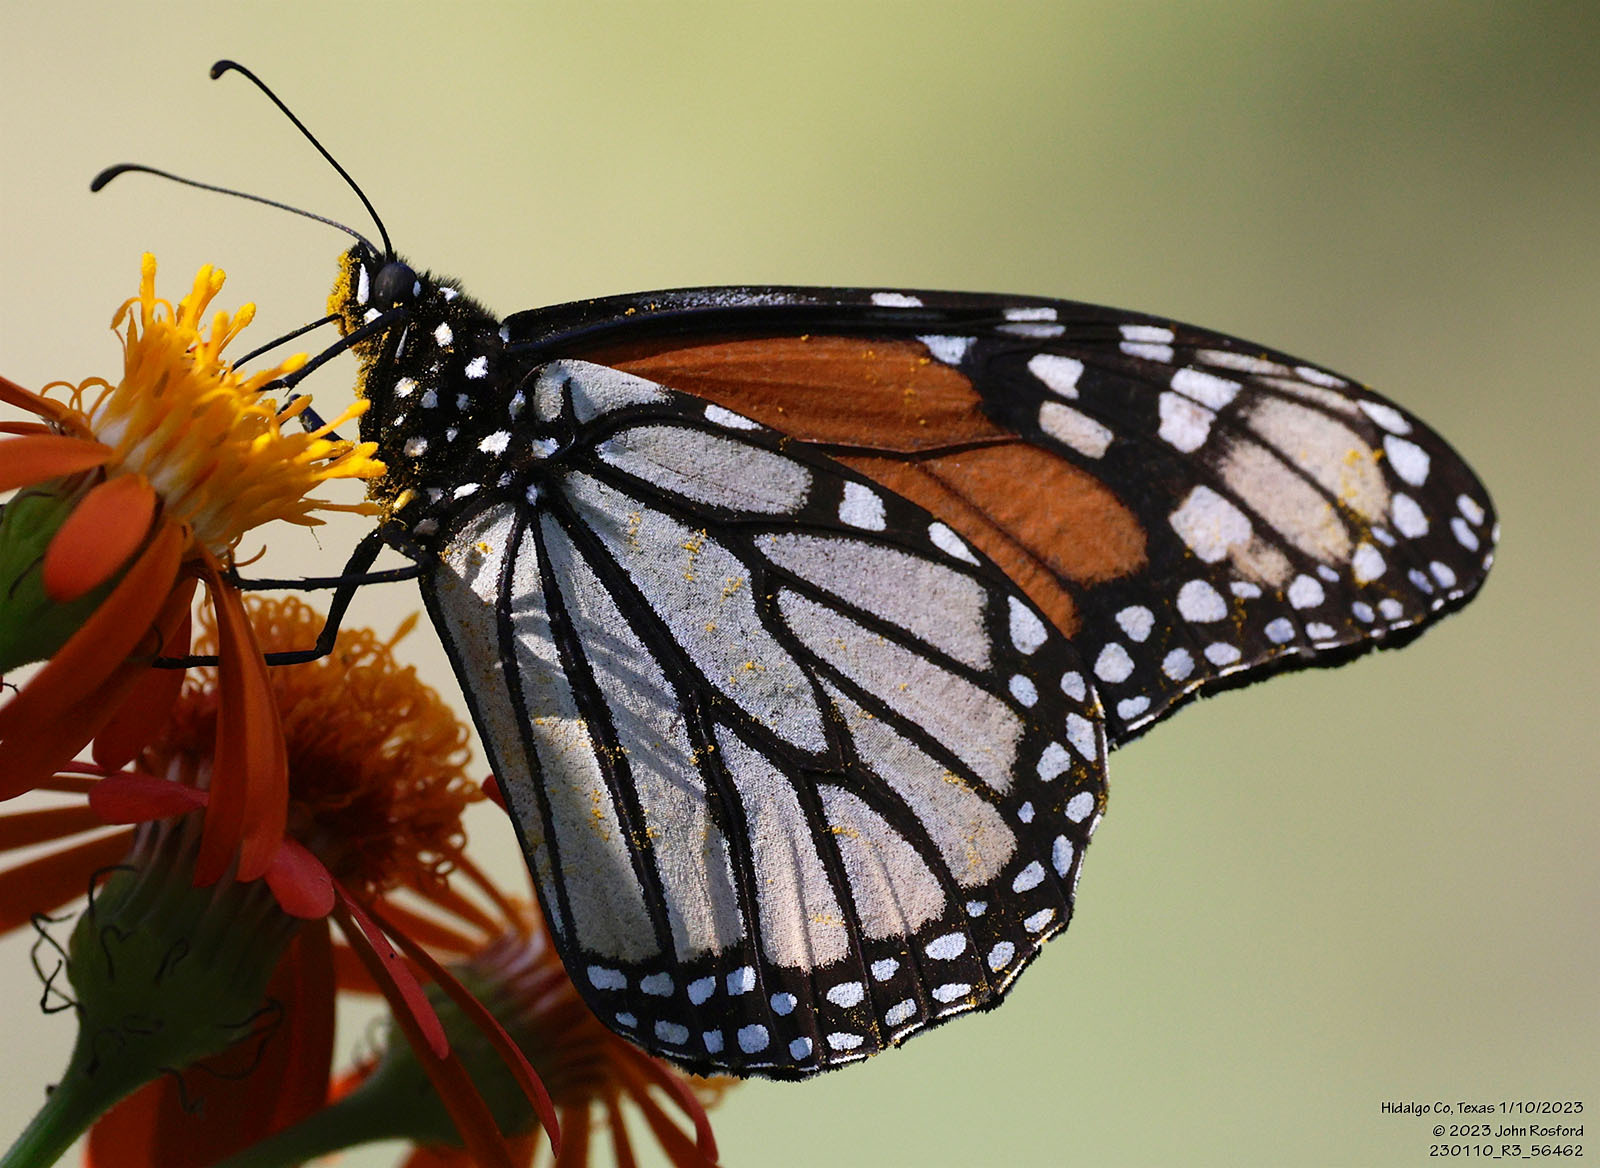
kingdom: Animalia
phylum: Arthropoda
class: Insecta
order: Lepidoptera
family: Nymphalidae
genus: Danaus
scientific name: Danaus plexippus
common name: Monarch
